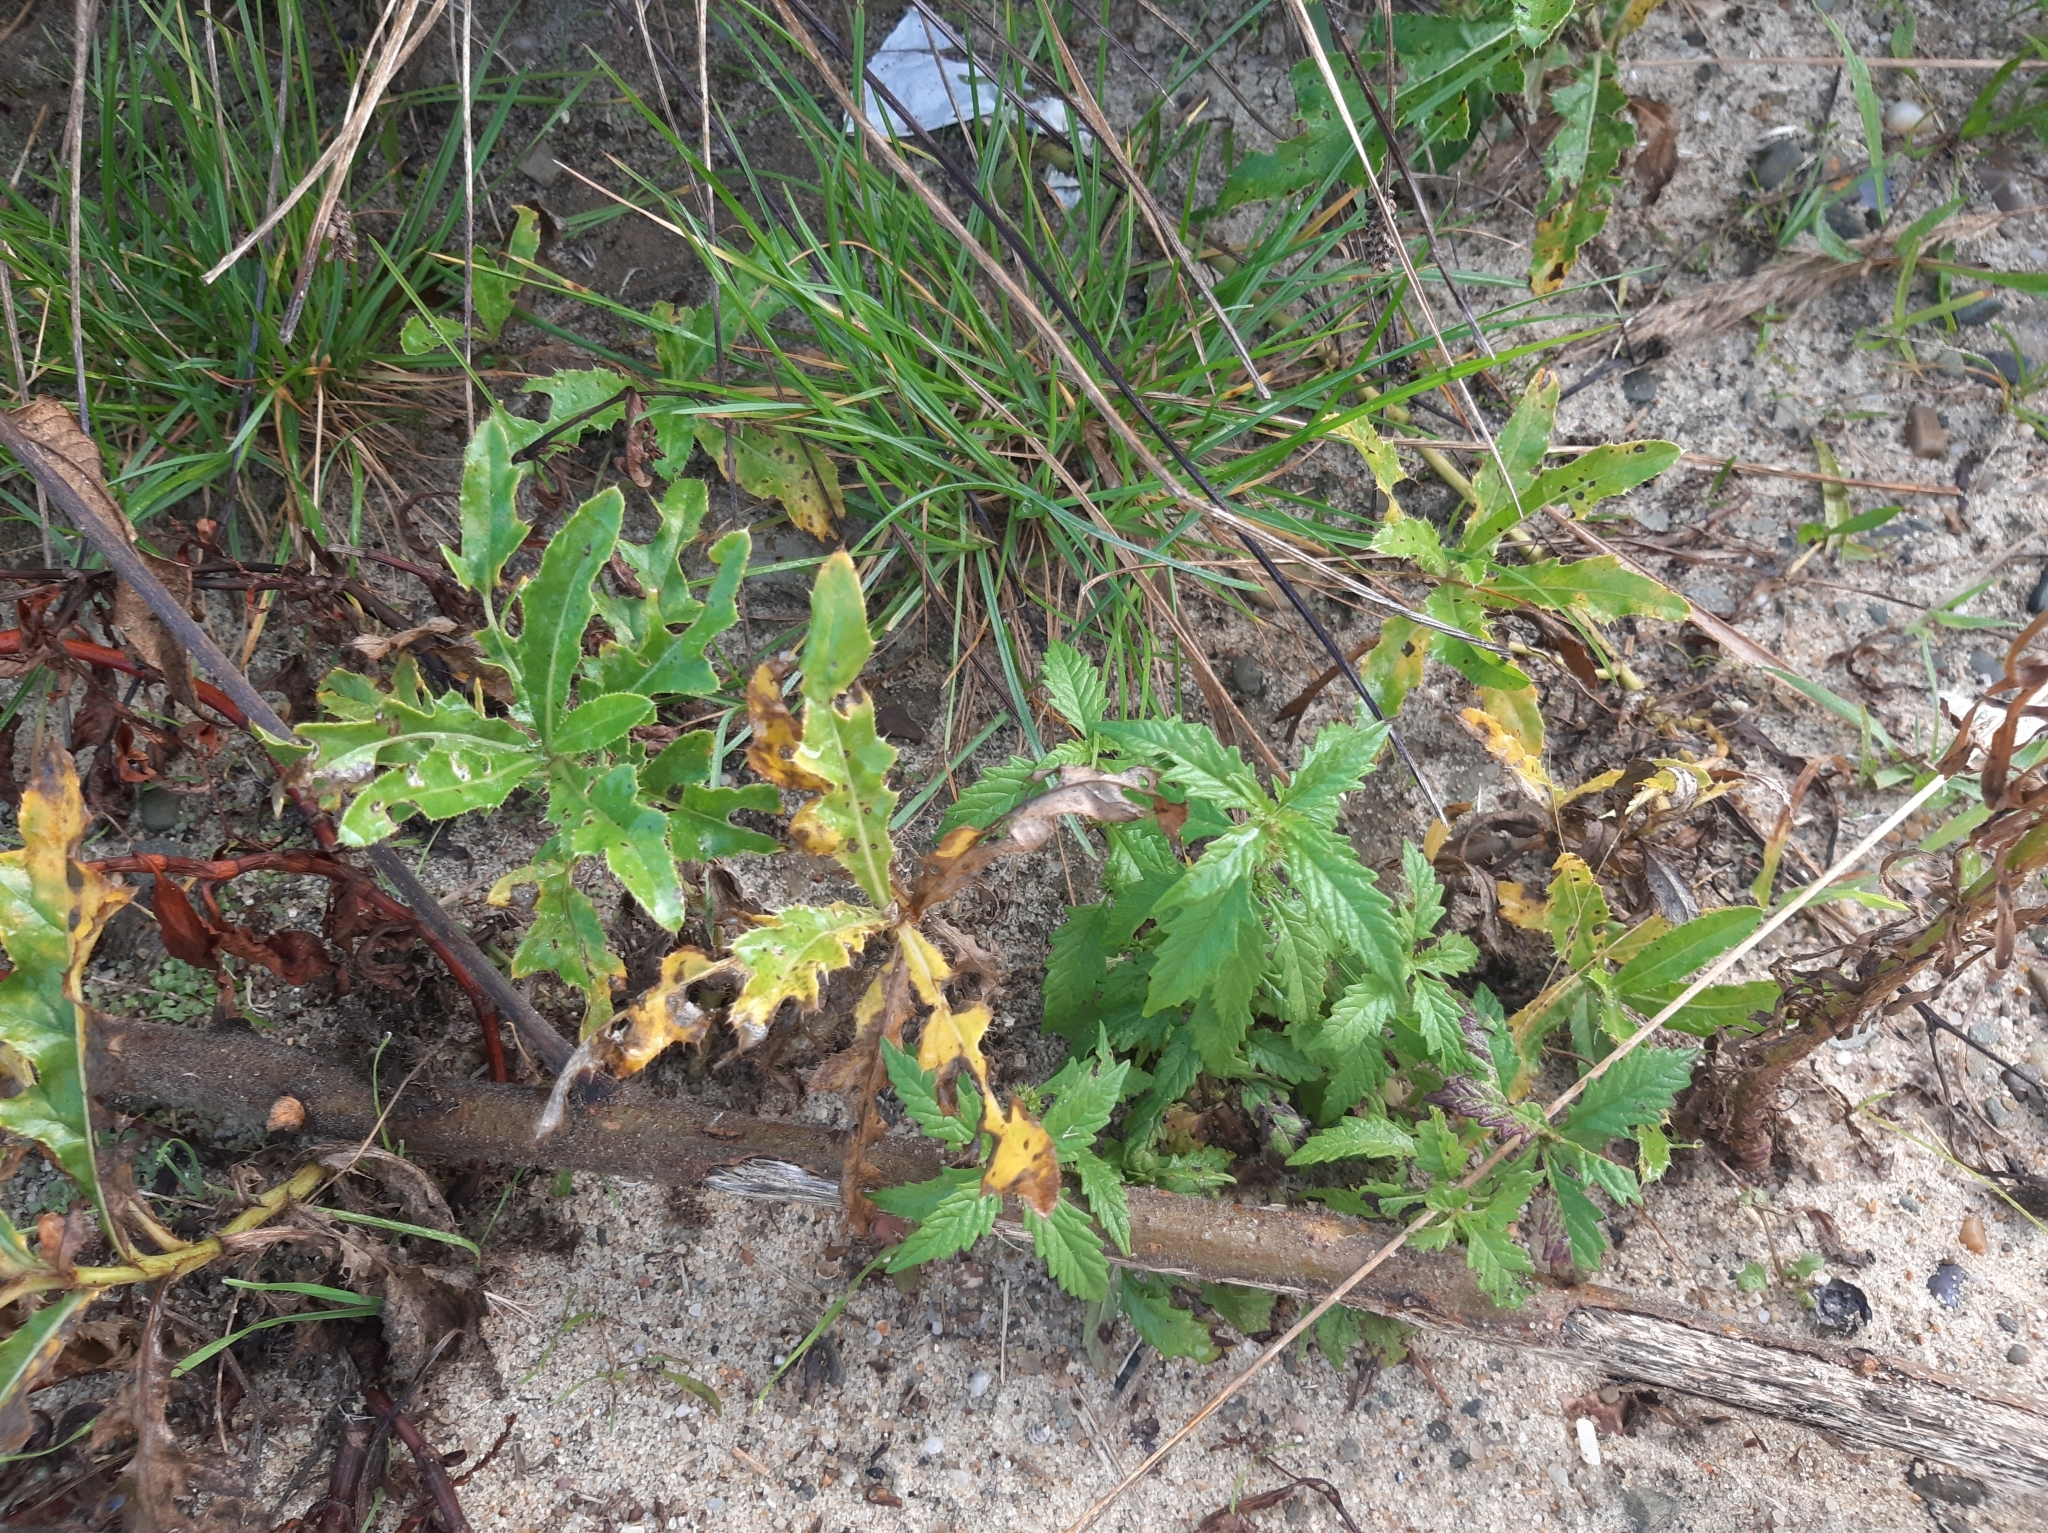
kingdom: Plantae
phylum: Tracheophyta
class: Magnoliopsida
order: Asterales
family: Asteraceae
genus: Cirsium
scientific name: Cirsium arvense
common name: Creeping thistle
